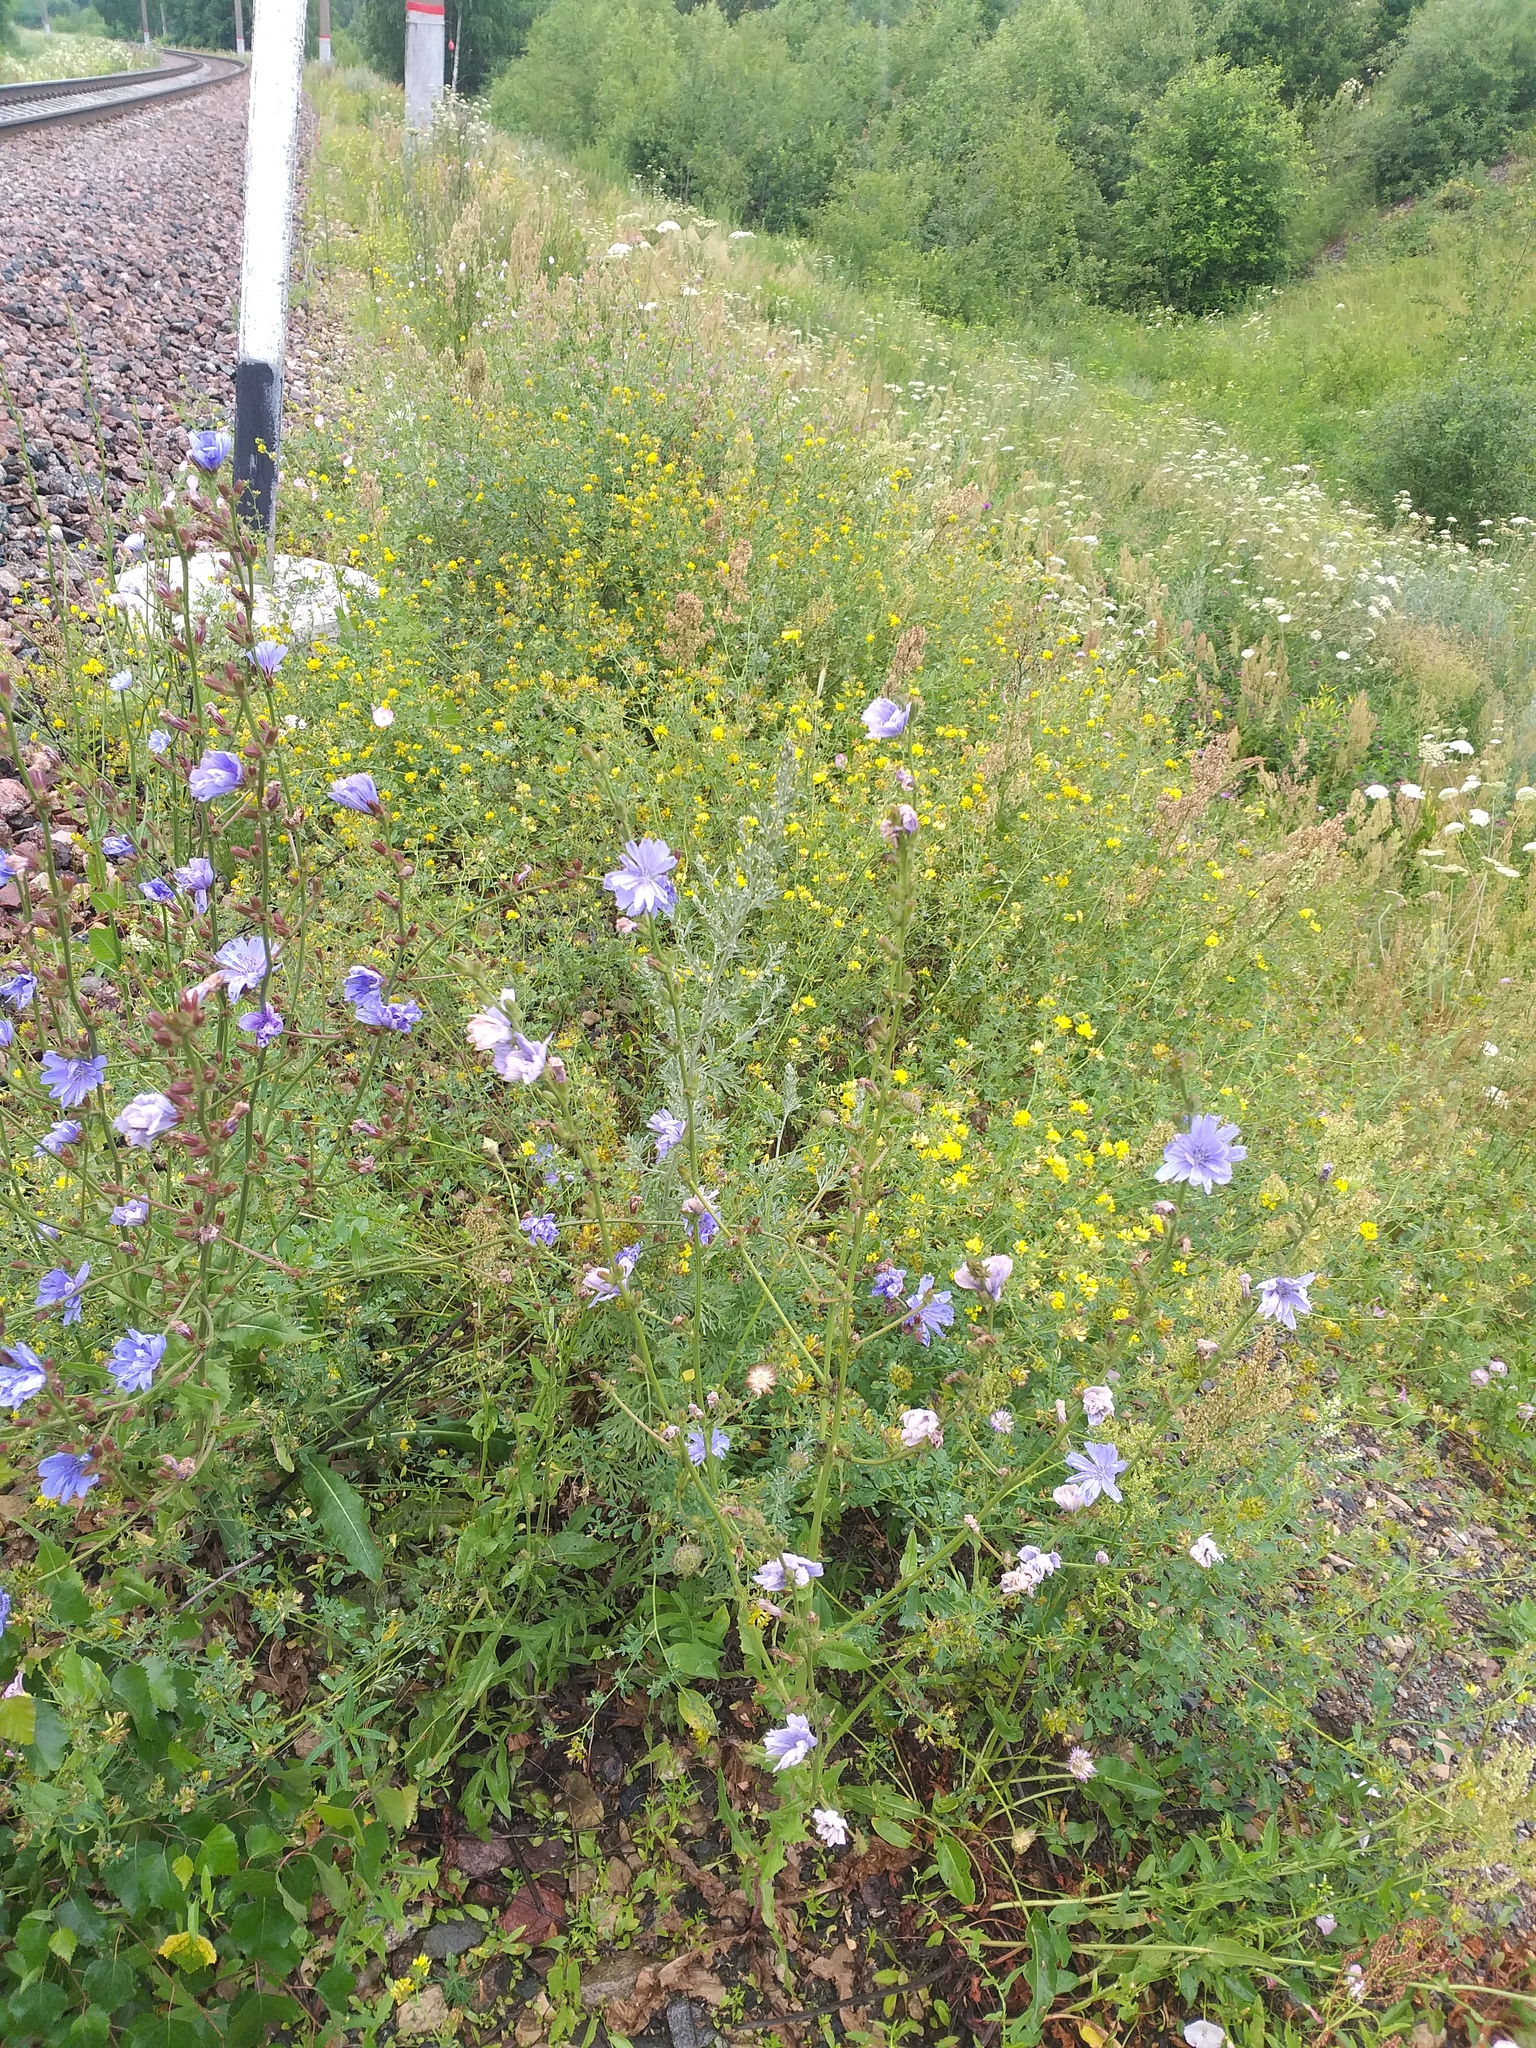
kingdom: Plantae
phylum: Tracheophyta
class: Magnoliopsida
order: Asterales
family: Asteraceae
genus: Cichorium
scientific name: Cichorium intybus
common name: Chicory
